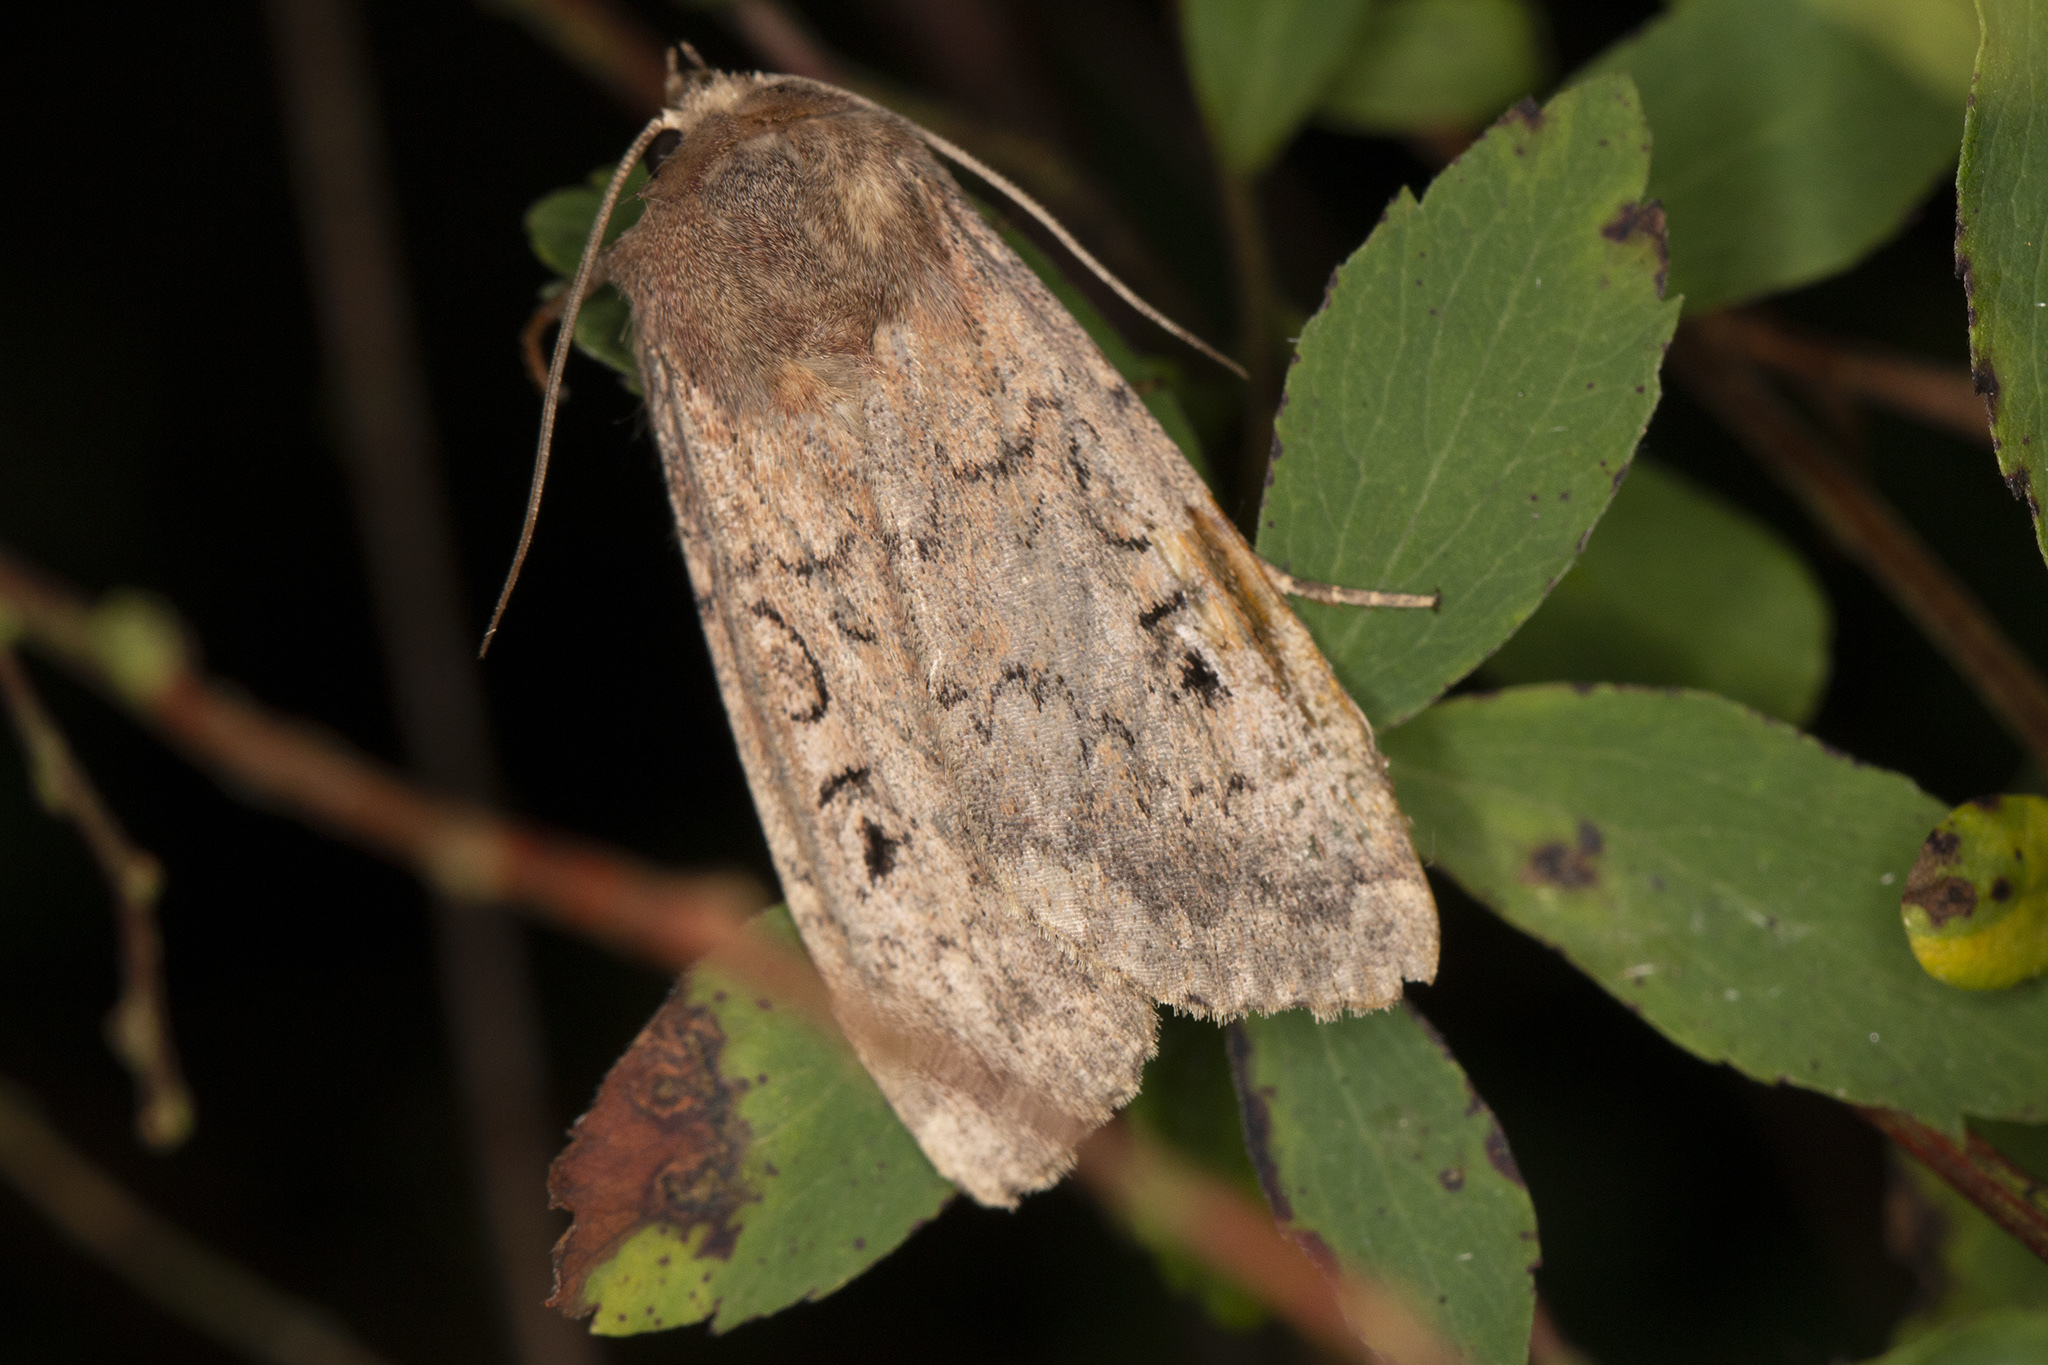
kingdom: Animalia
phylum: Arthropoda
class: Insecta
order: Lepidoptera
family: Noctuidae
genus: Graphiphora
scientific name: Graphiphora augur
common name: Double dart
